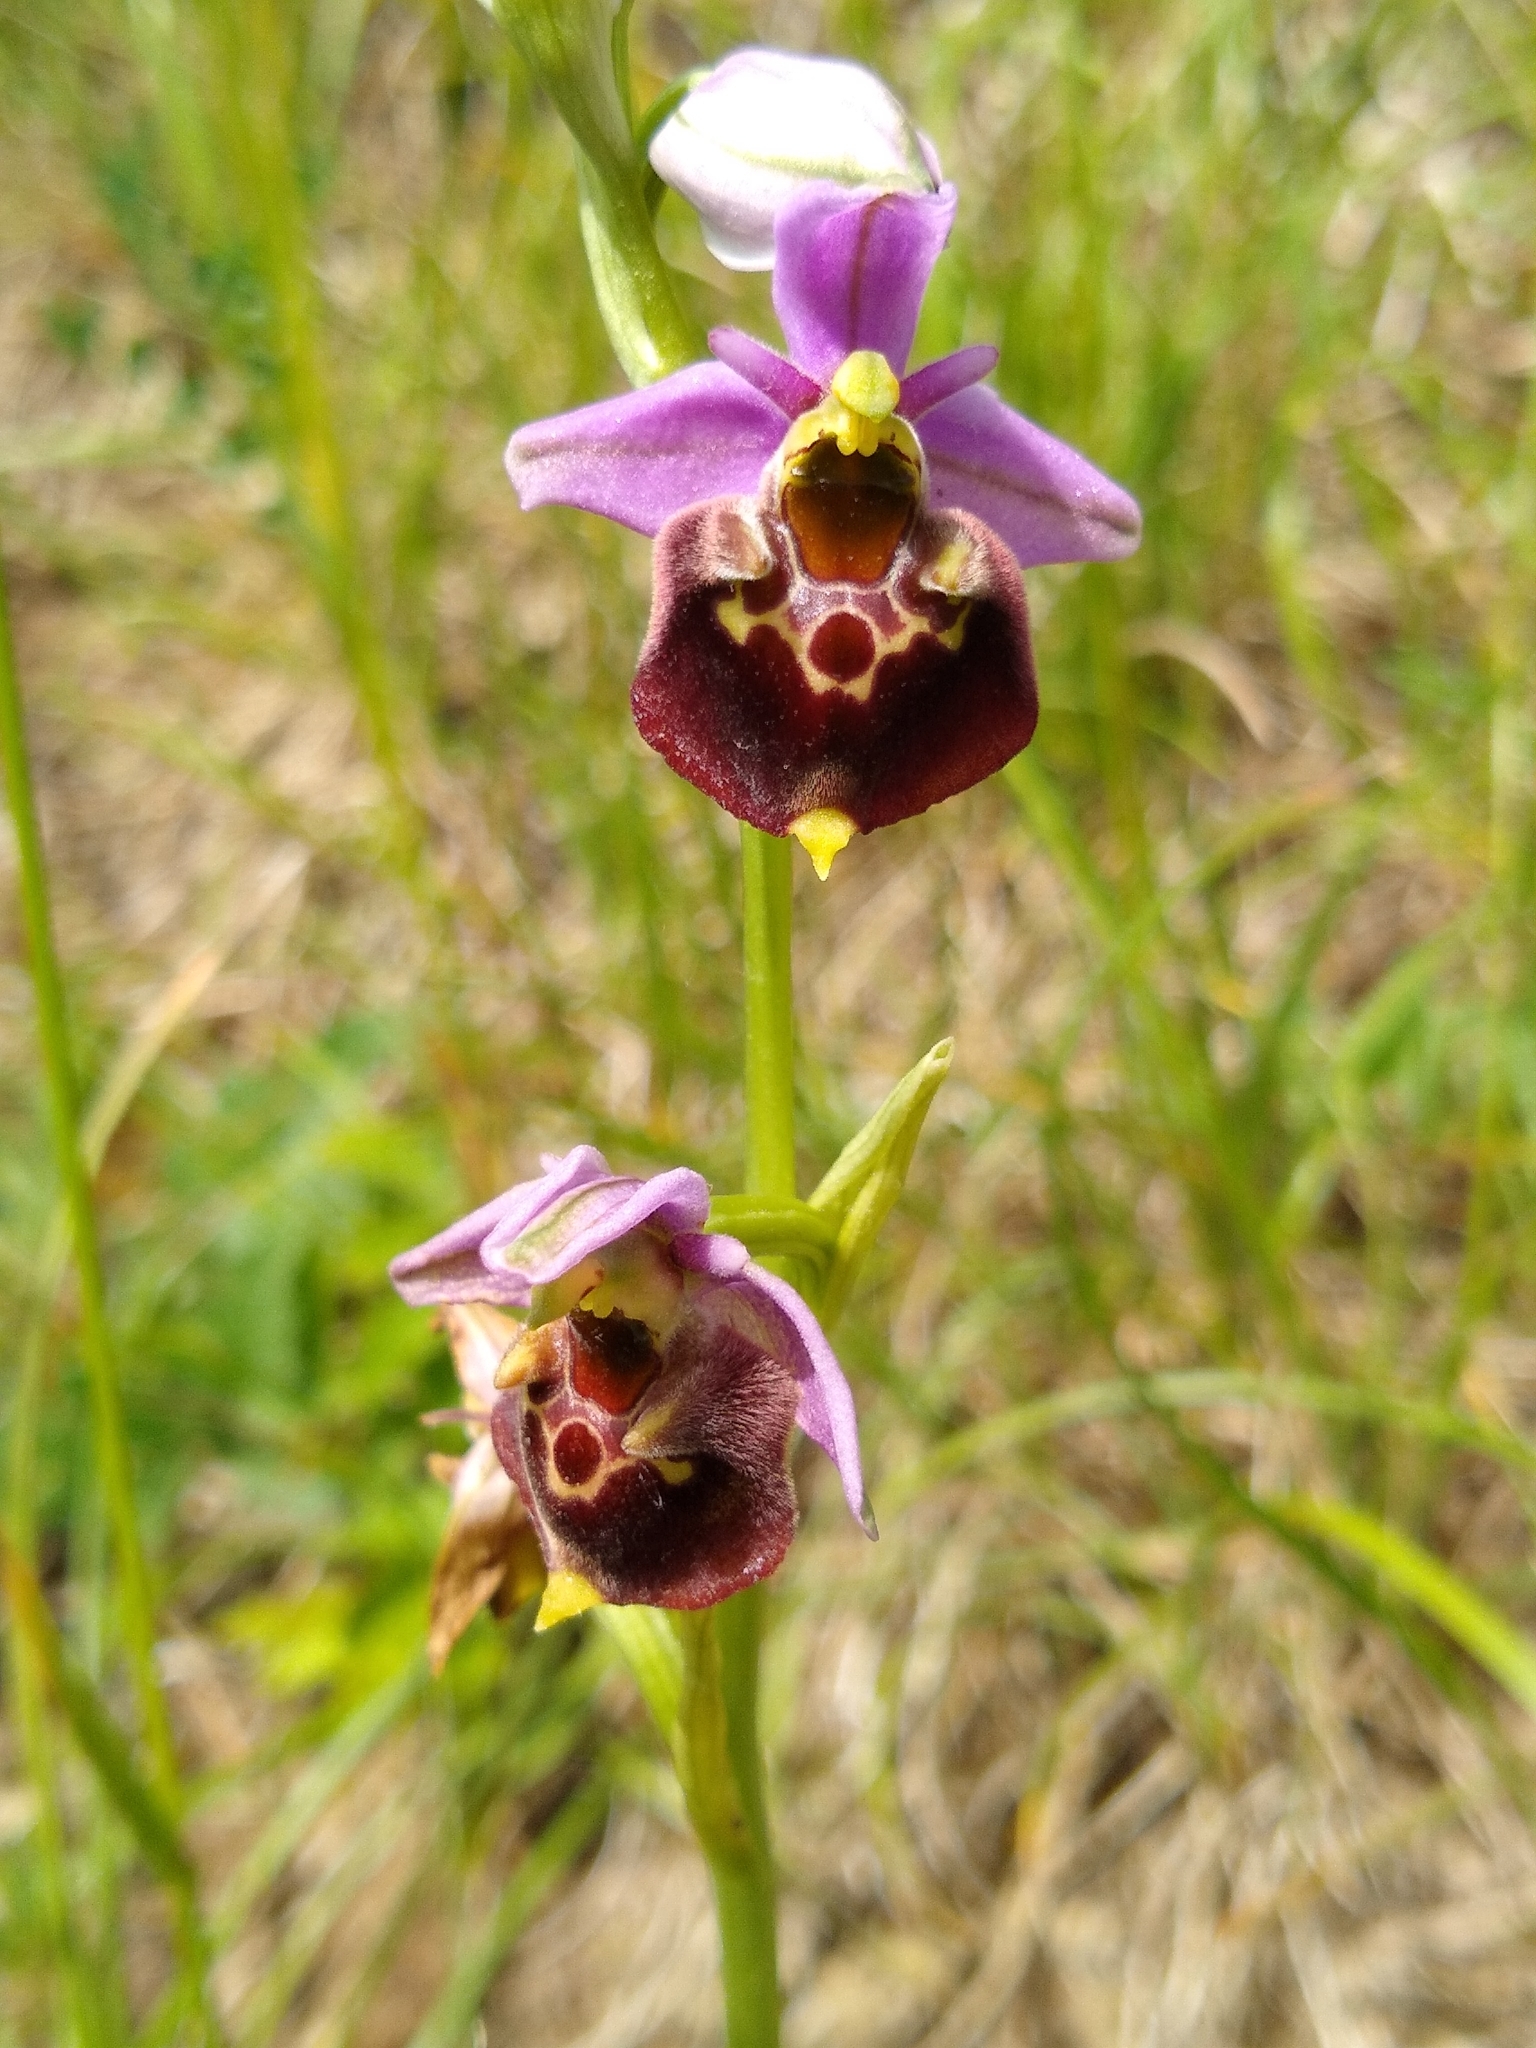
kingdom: Plantae
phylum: Tracheophyta
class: Liliopsida
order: Asparagales
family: Orchidaceae
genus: Ophrys
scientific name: Ophrys holosericea
